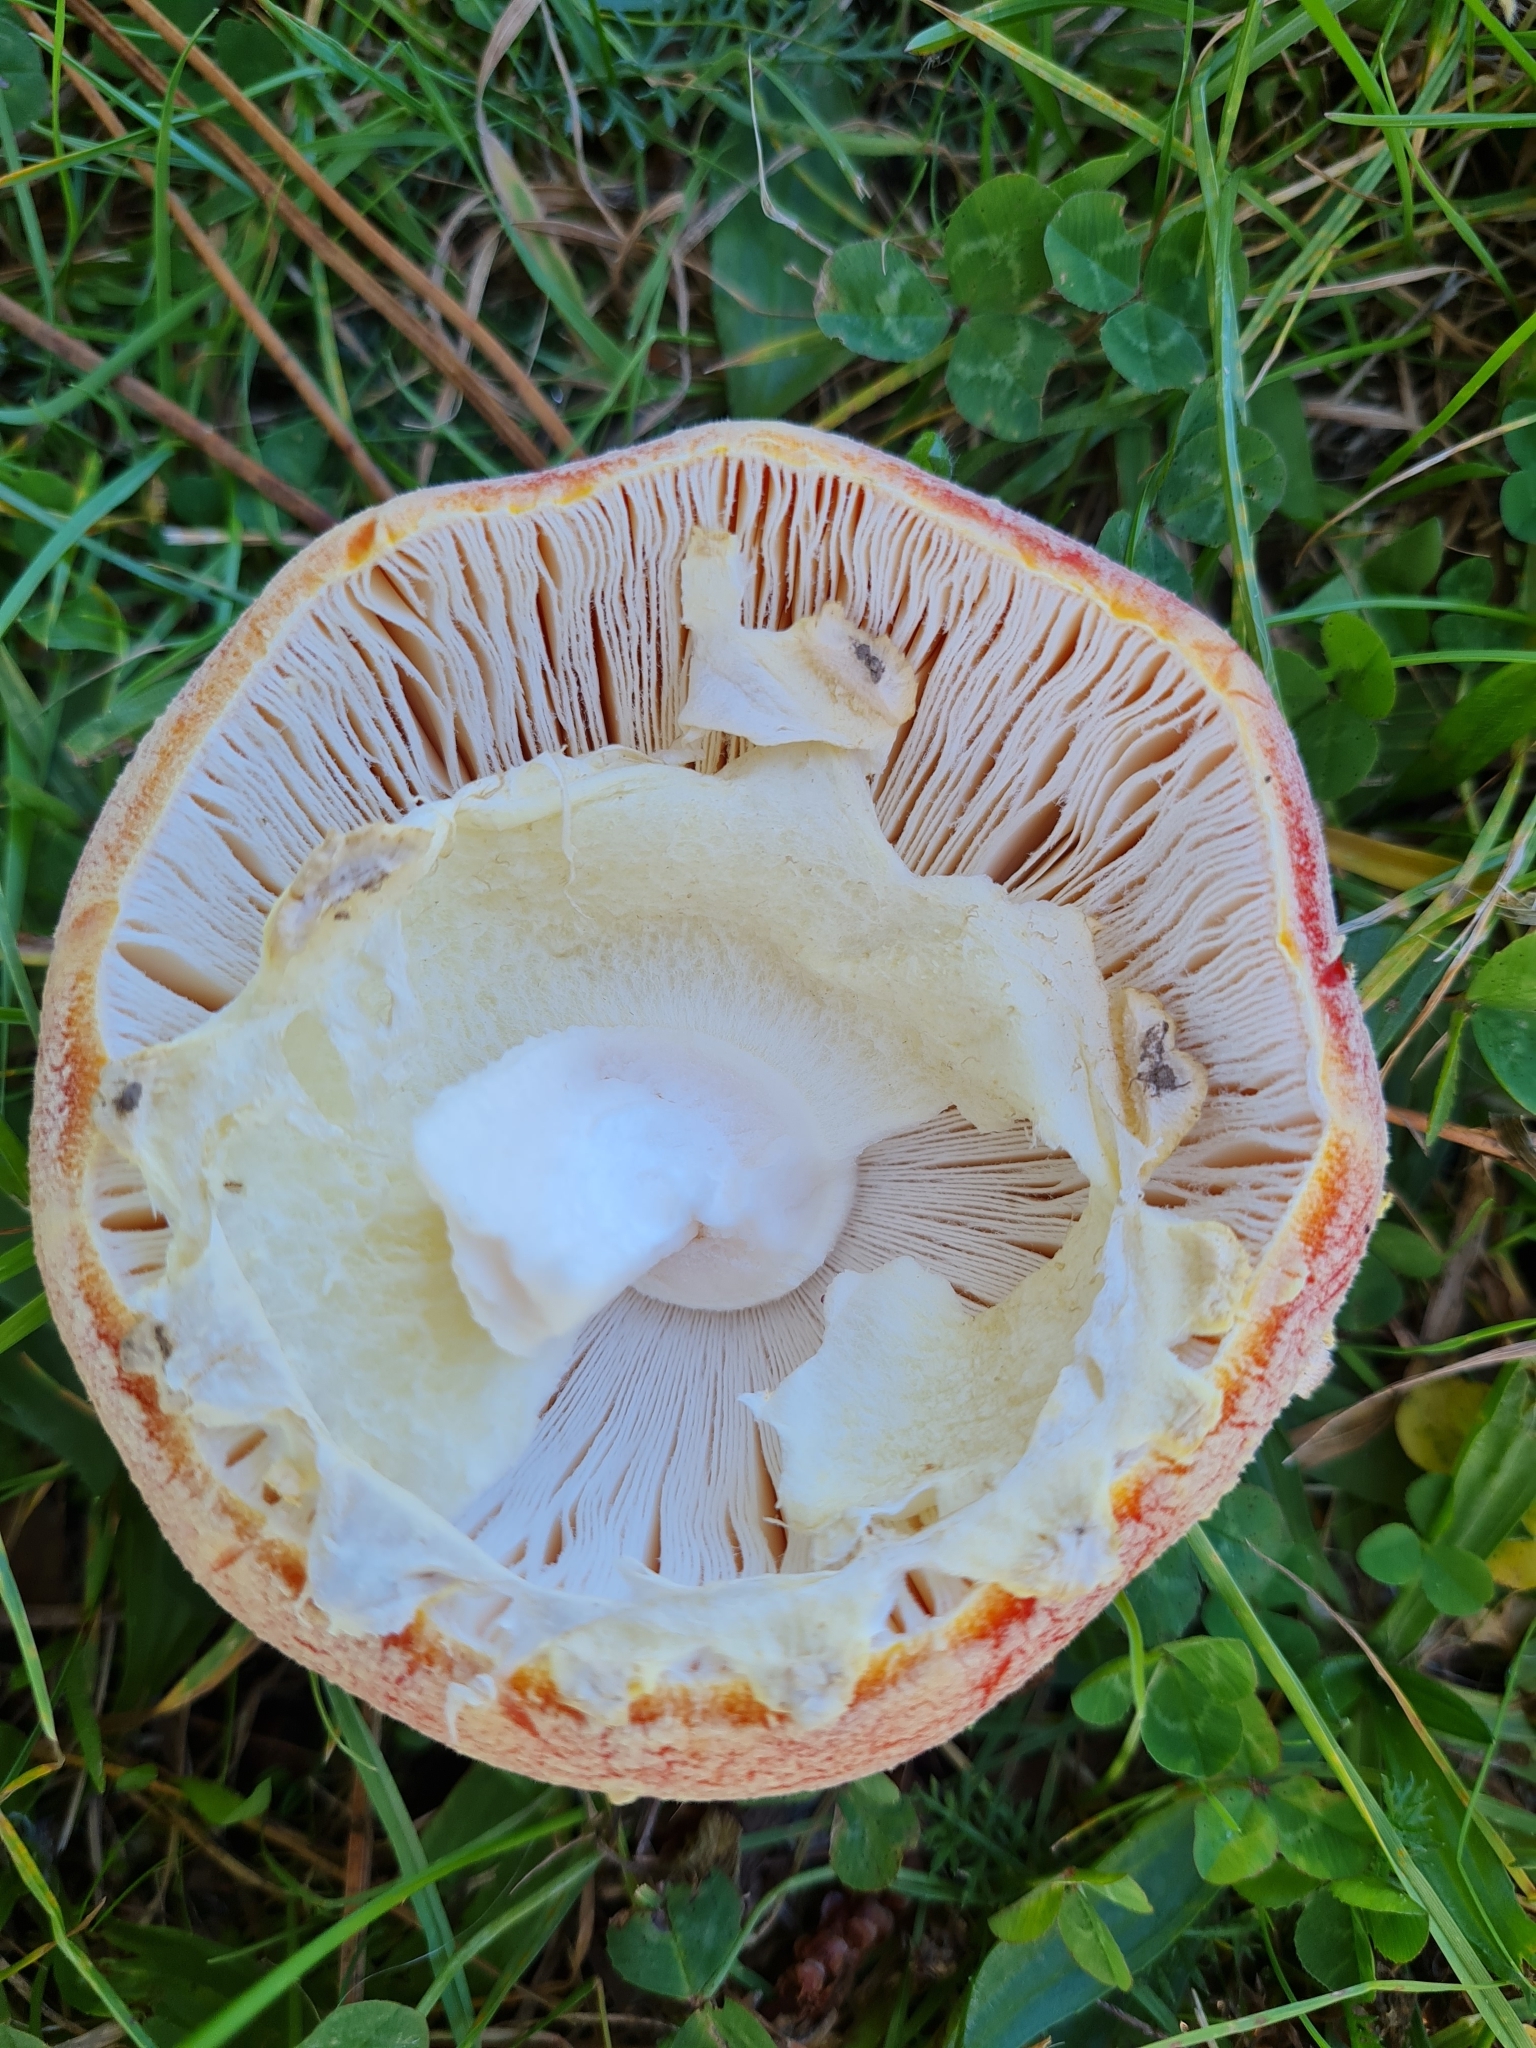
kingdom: Fungi
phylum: Basidiomycota
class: Agaricomycetes
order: Agaricales
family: Amanitaceae
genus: Amanita
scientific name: Amanita muscaria
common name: Fly agaric
